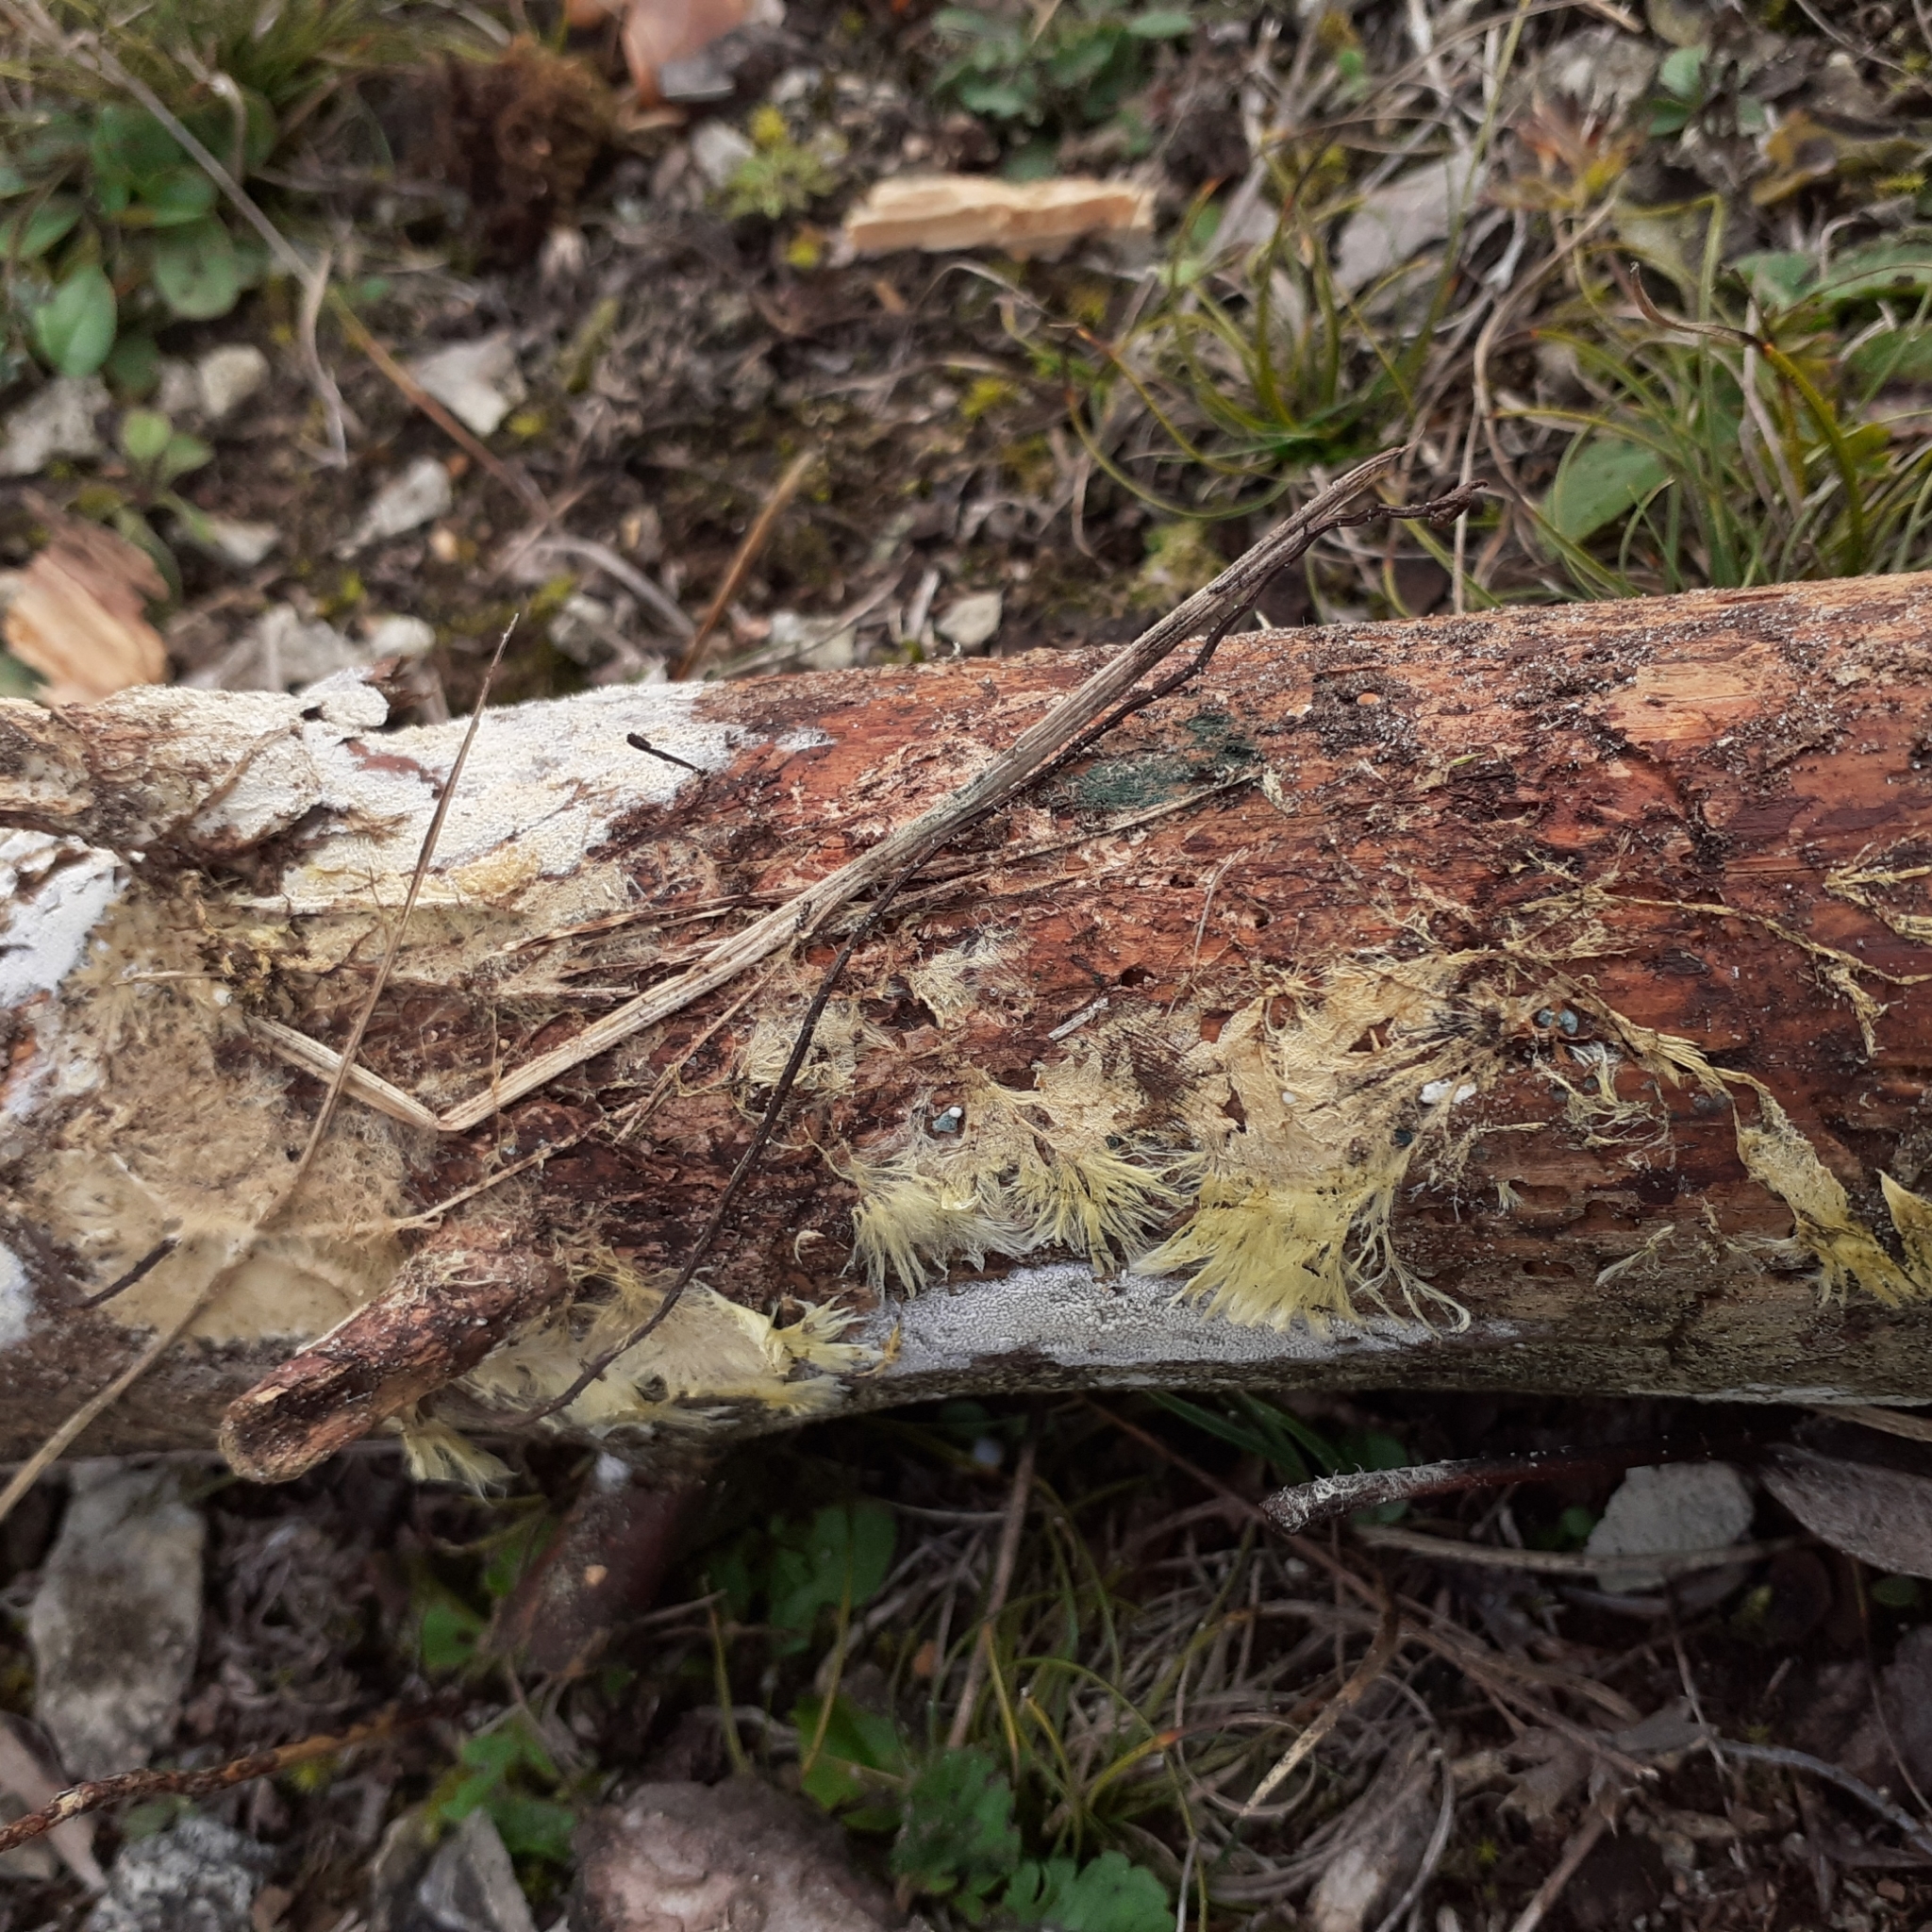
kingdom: Fungi
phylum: Basidiomycota
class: Agaricomycetes
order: Russulales
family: Xenasmataceae
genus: Xenasmatella
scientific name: Xenasmatella vaga
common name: Yellow cobweb
